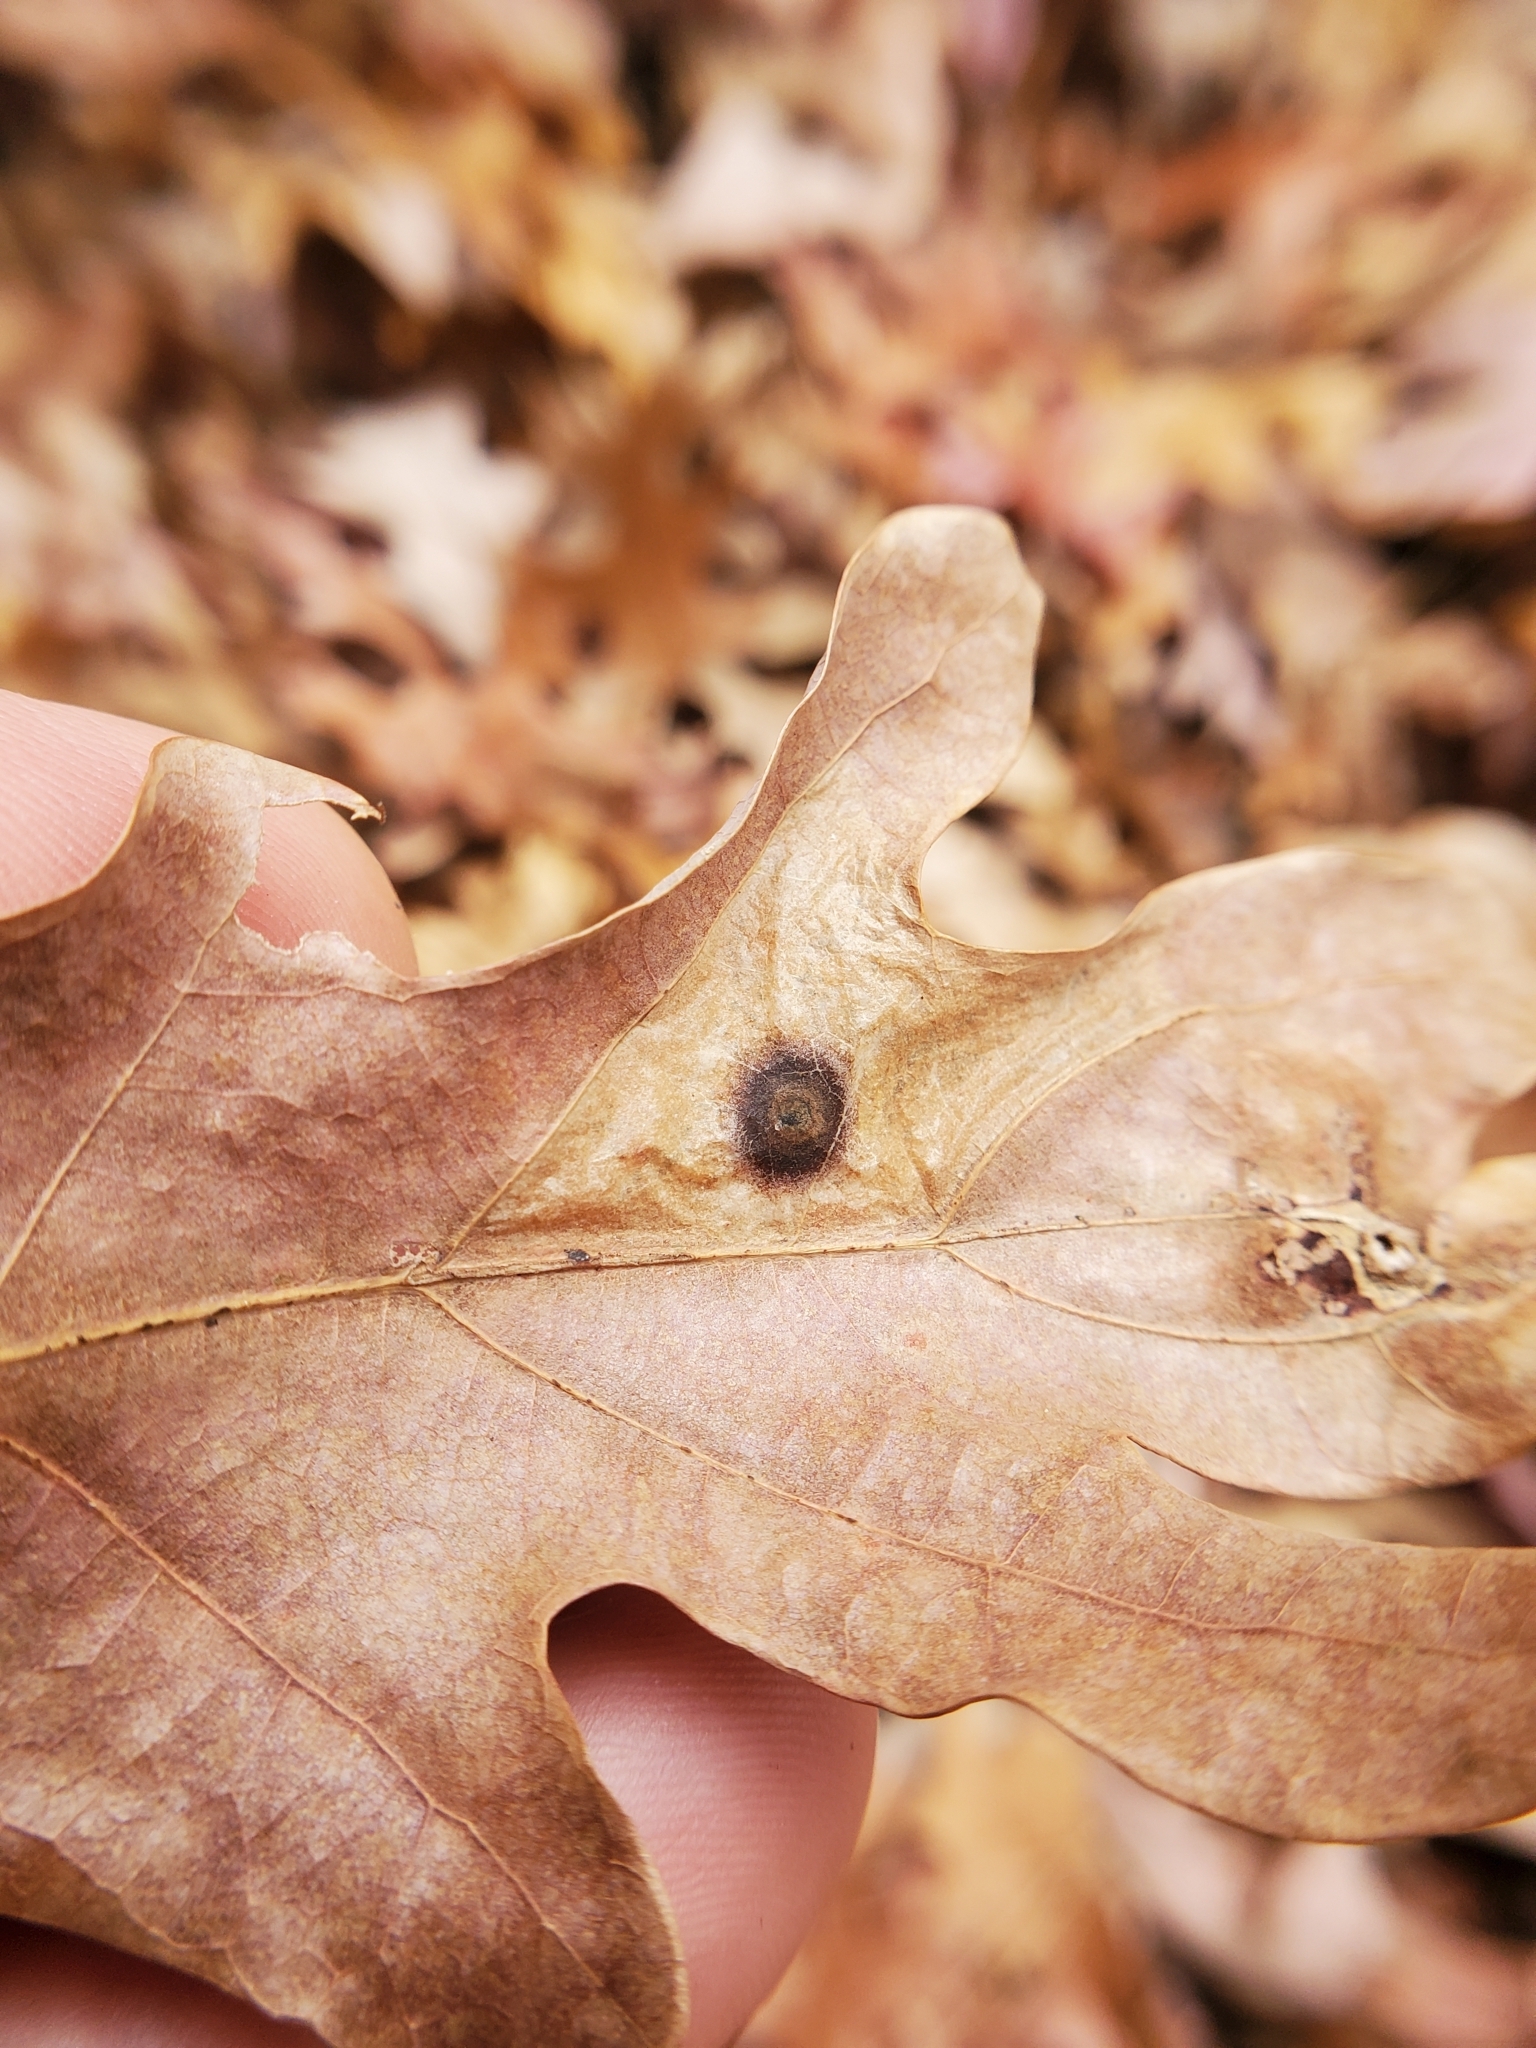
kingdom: Animalia
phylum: Arthropoda
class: Insecta
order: Hymenoptera
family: Cynipidae
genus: Callirhytis
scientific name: Callirhytis
